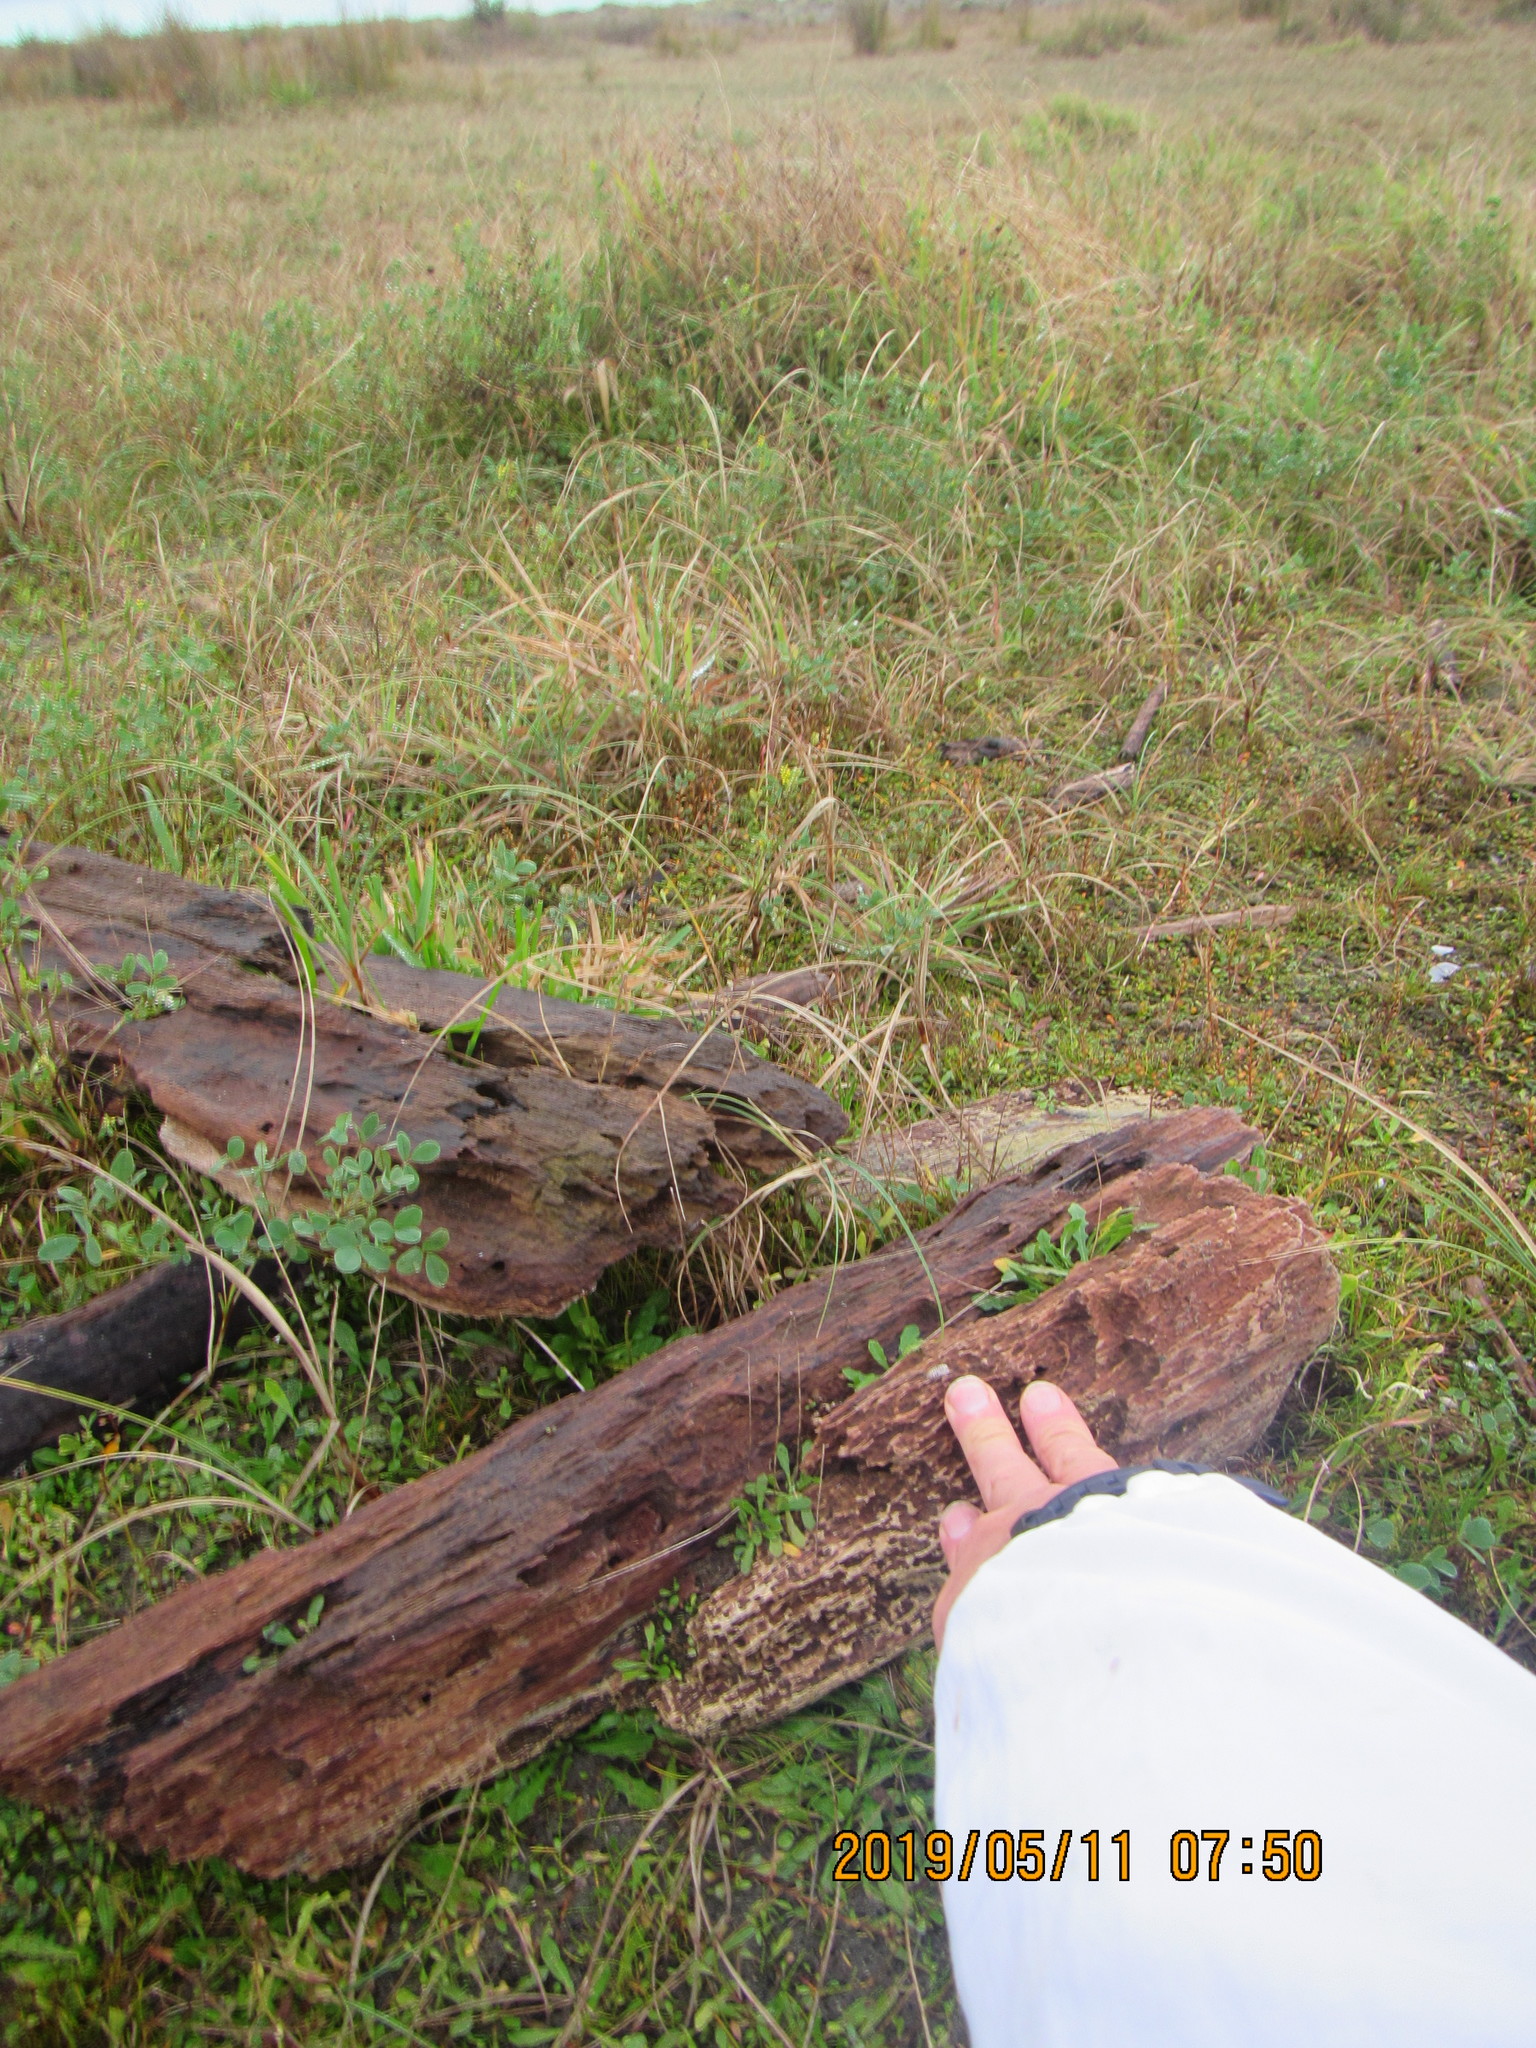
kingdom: Animalia
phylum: Platyhelminthes
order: Tricladida
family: Geoplanidae
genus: Caenoplana
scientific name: Caenoplana coerulea
